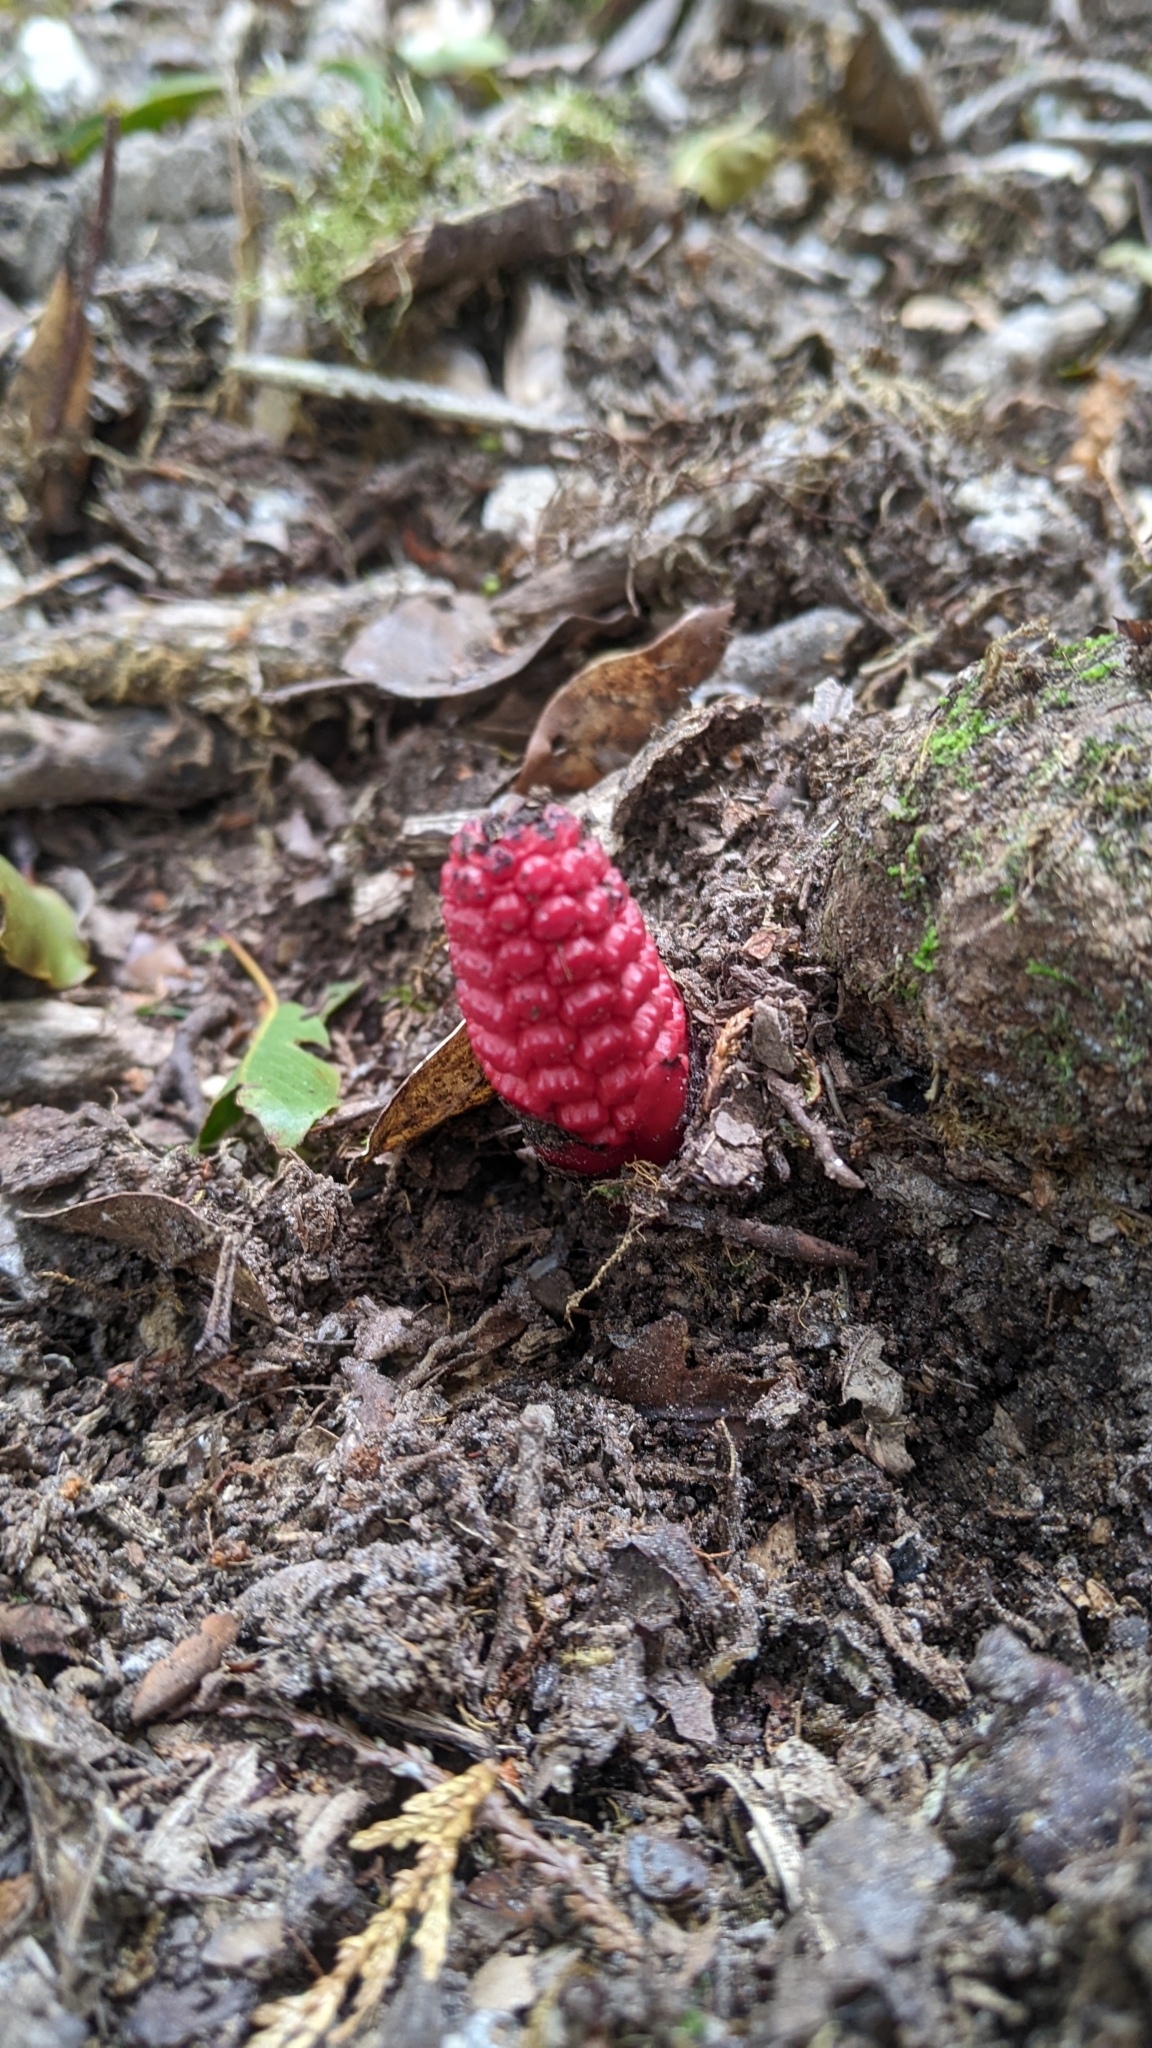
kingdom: Plantae
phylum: Tracheophyta
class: Magnoliopsida
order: Santalales
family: Balanophoraceae
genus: Balanophora
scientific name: Balanophora laxiflora
